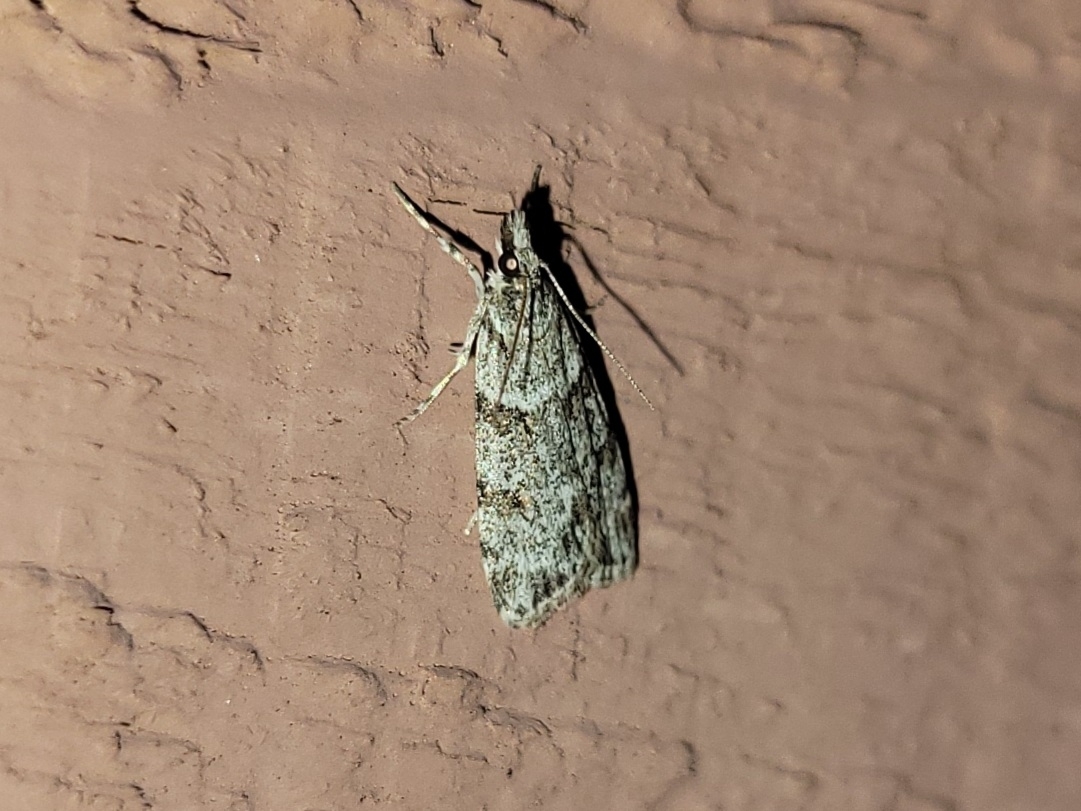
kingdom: Animalia
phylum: Arthropoda
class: Insecta
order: Lepidoptera
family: Crambidae
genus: Scoparia
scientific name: Scoparia biplagialis
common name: Double-striped scoparia moth
